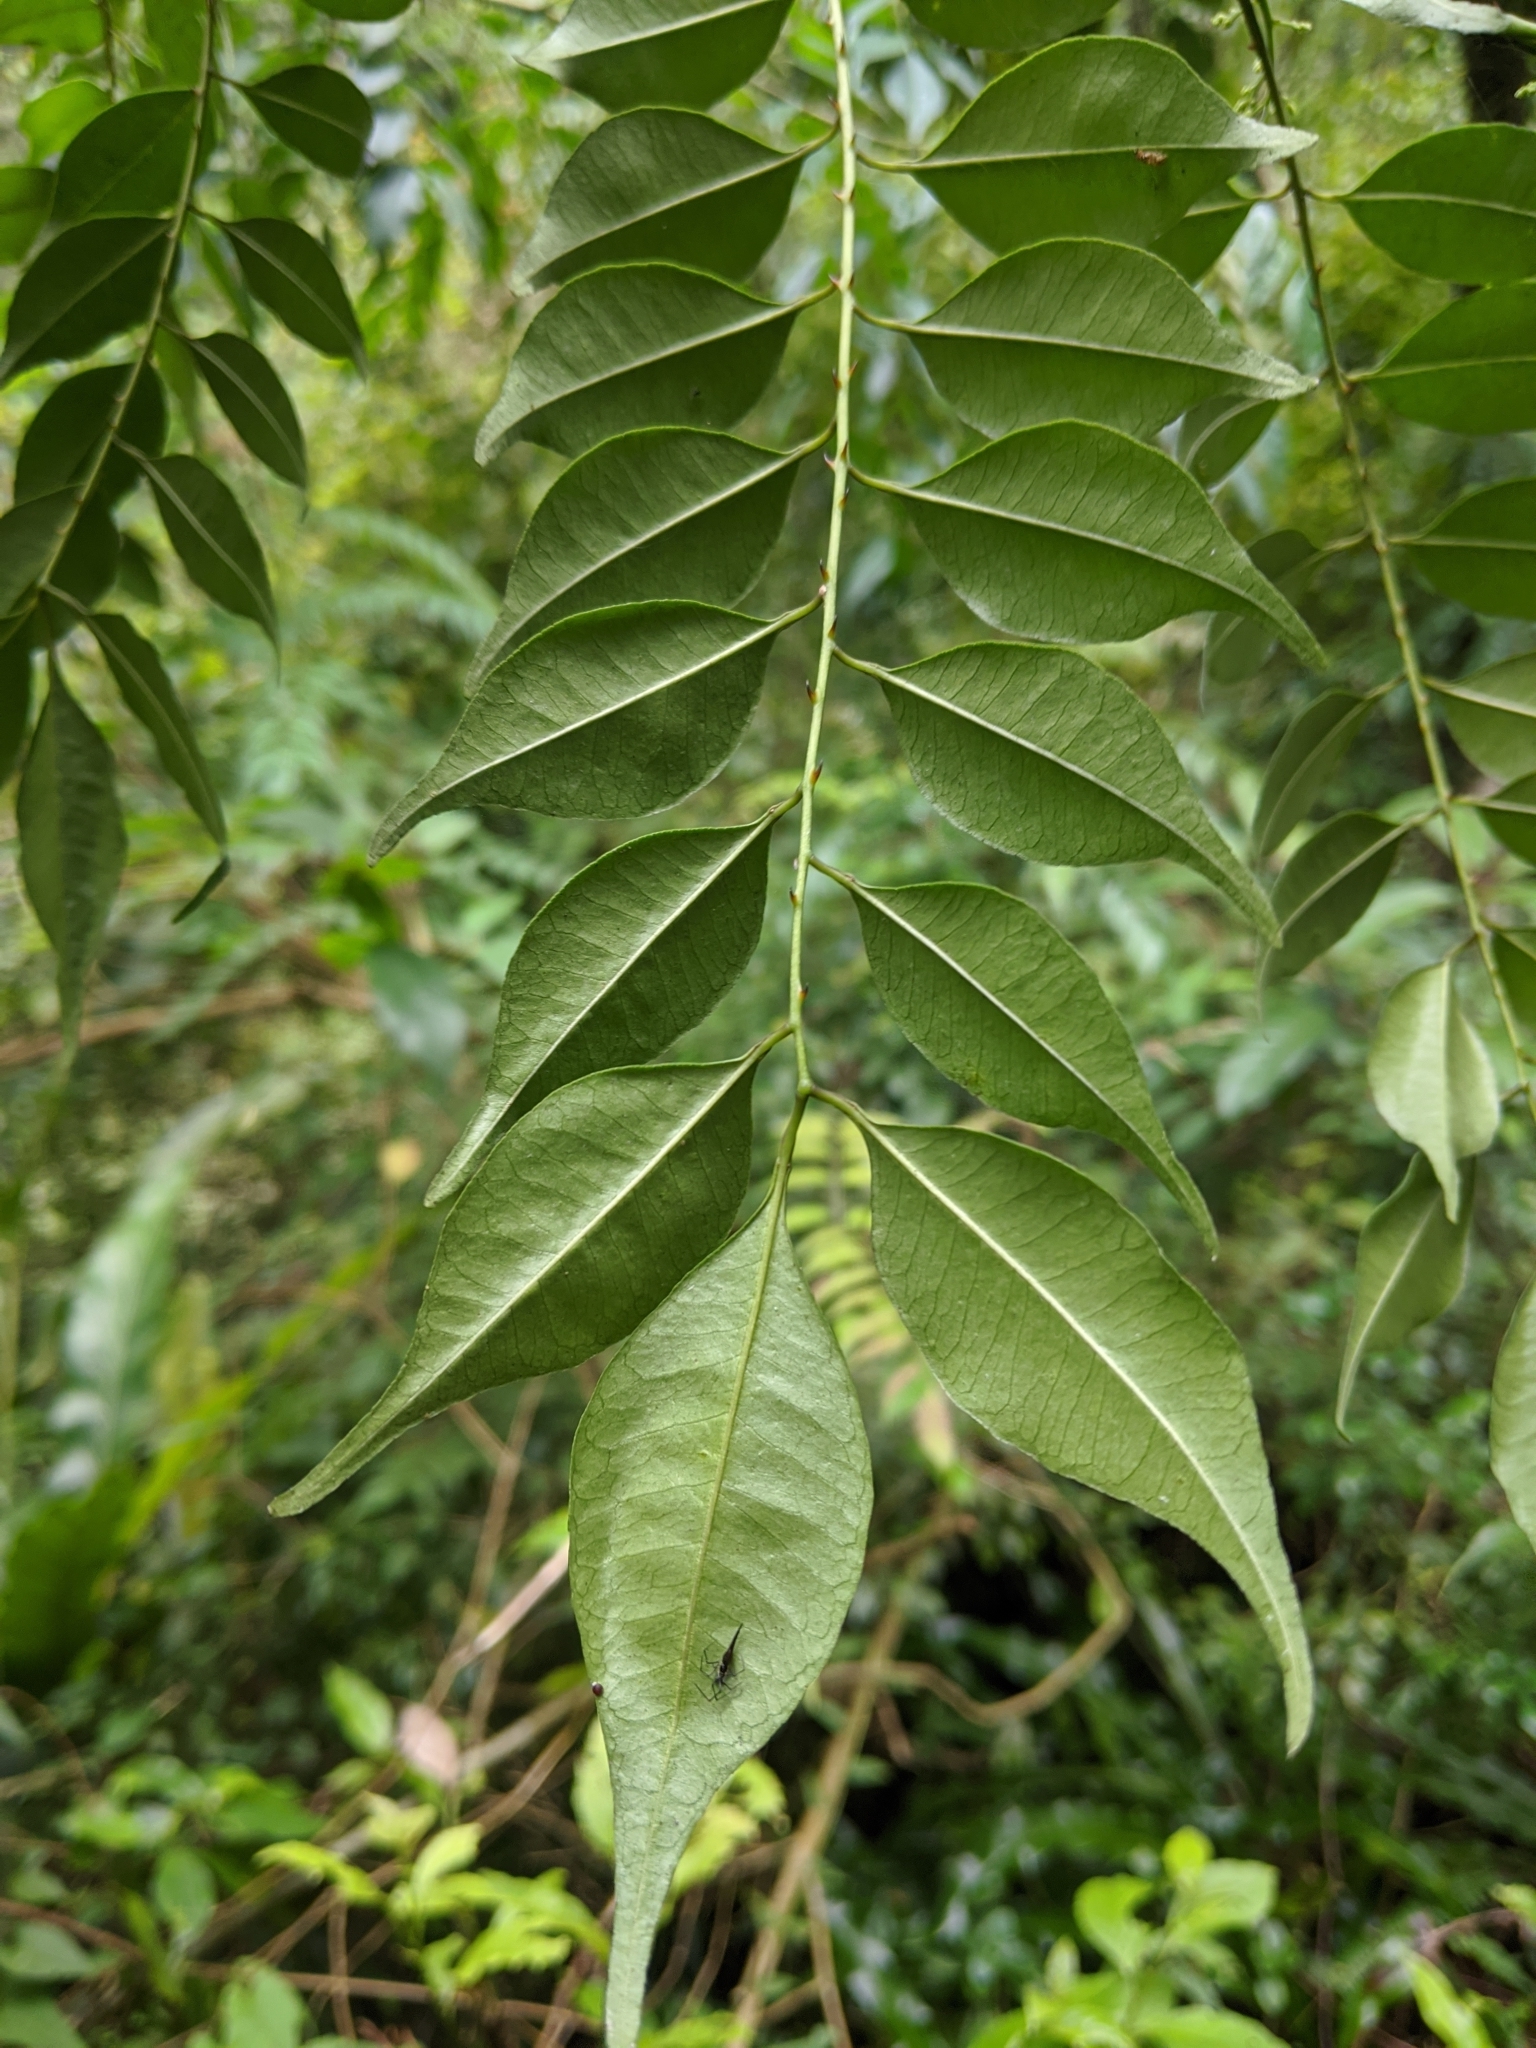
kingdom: Plantae
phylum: Tracheophyta
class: Magnoliopsida
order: Sapindales
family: Rutaceae
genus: Zanthoxylum
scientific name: Zanthoxylum scandens
